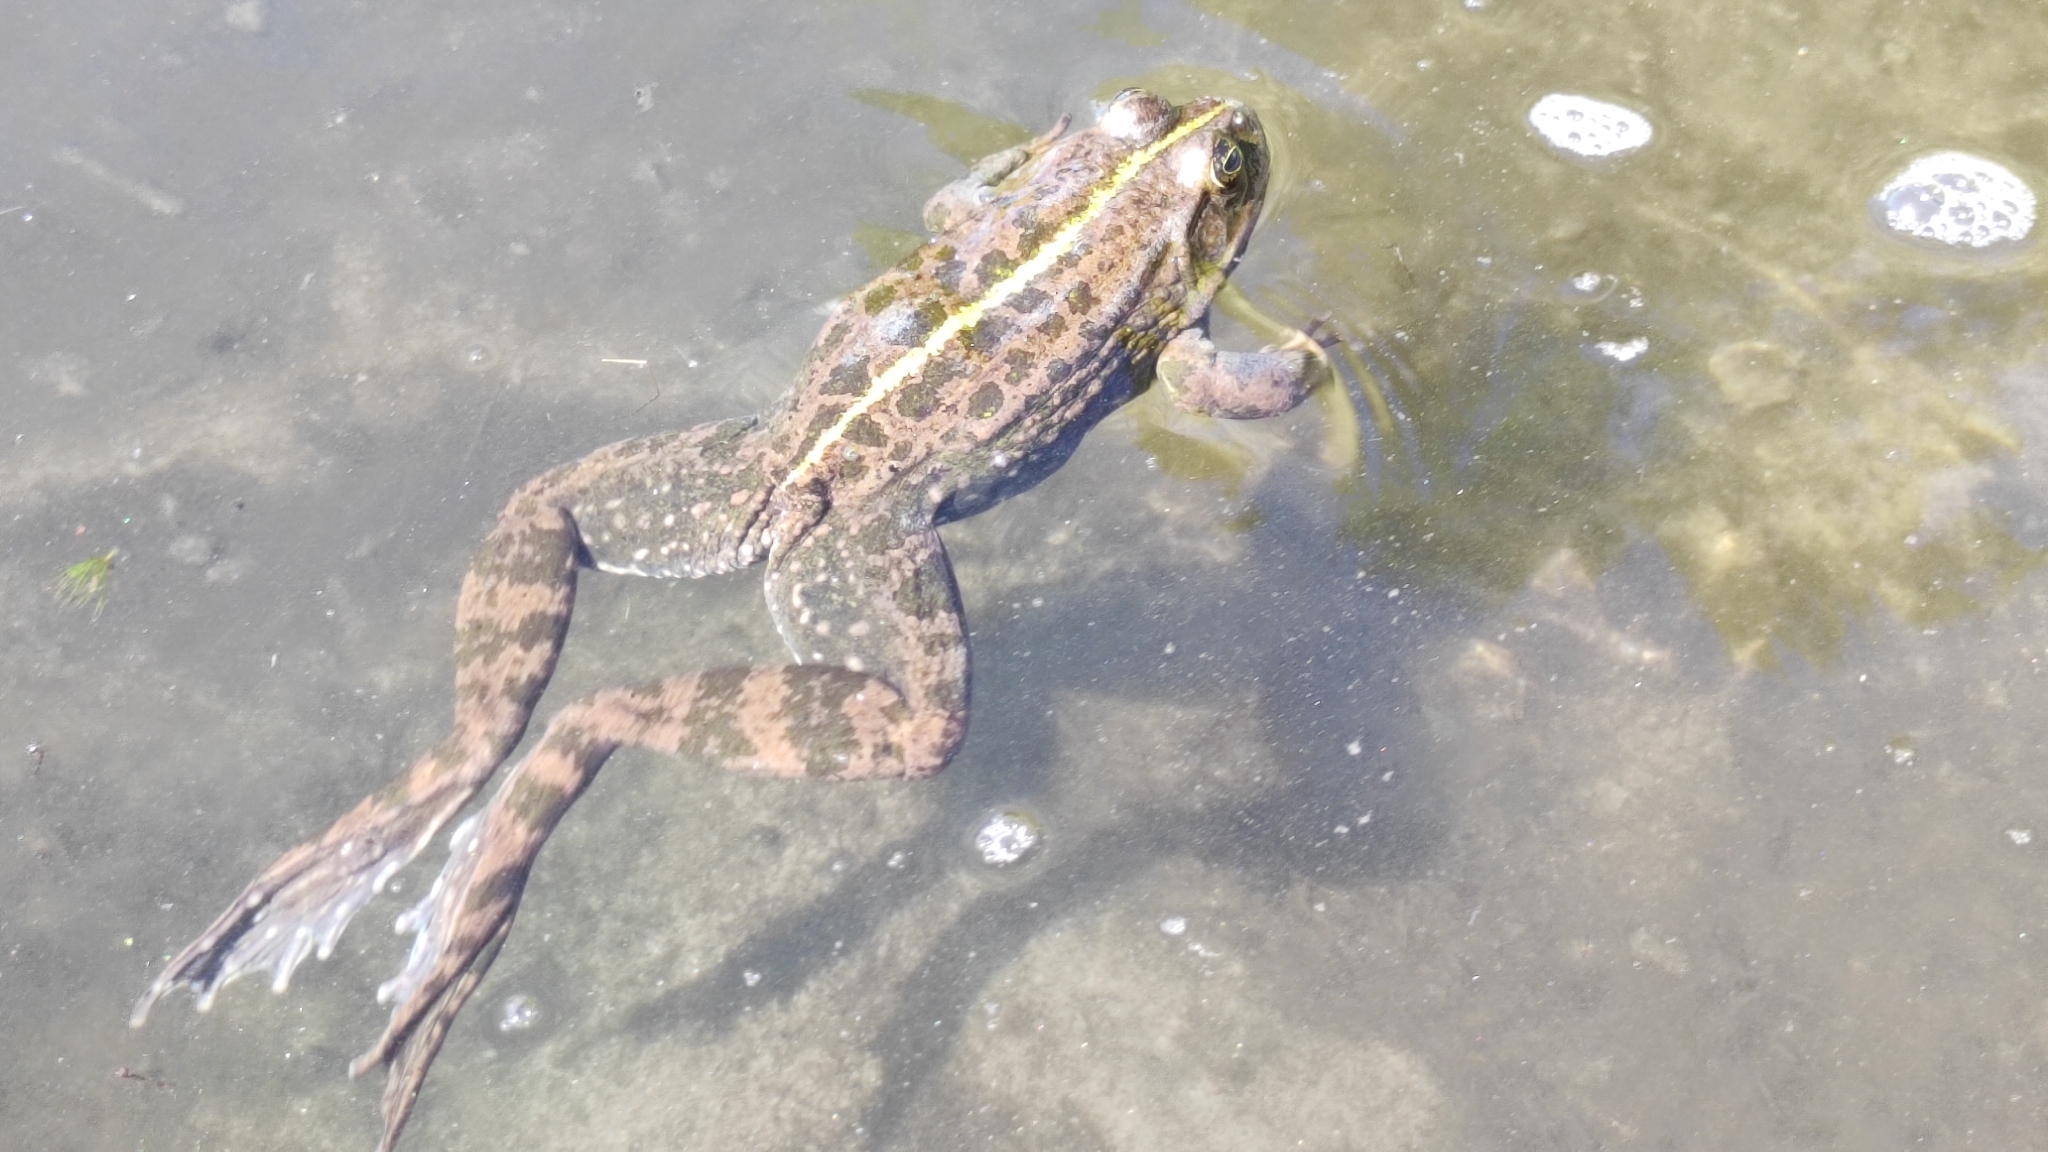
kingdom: Animalia
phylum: Chordata
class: Amphibia
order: Anura
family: Ranidae
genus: Pelophylax
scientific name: Pelophylax ridibundus
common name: Marsh frog
